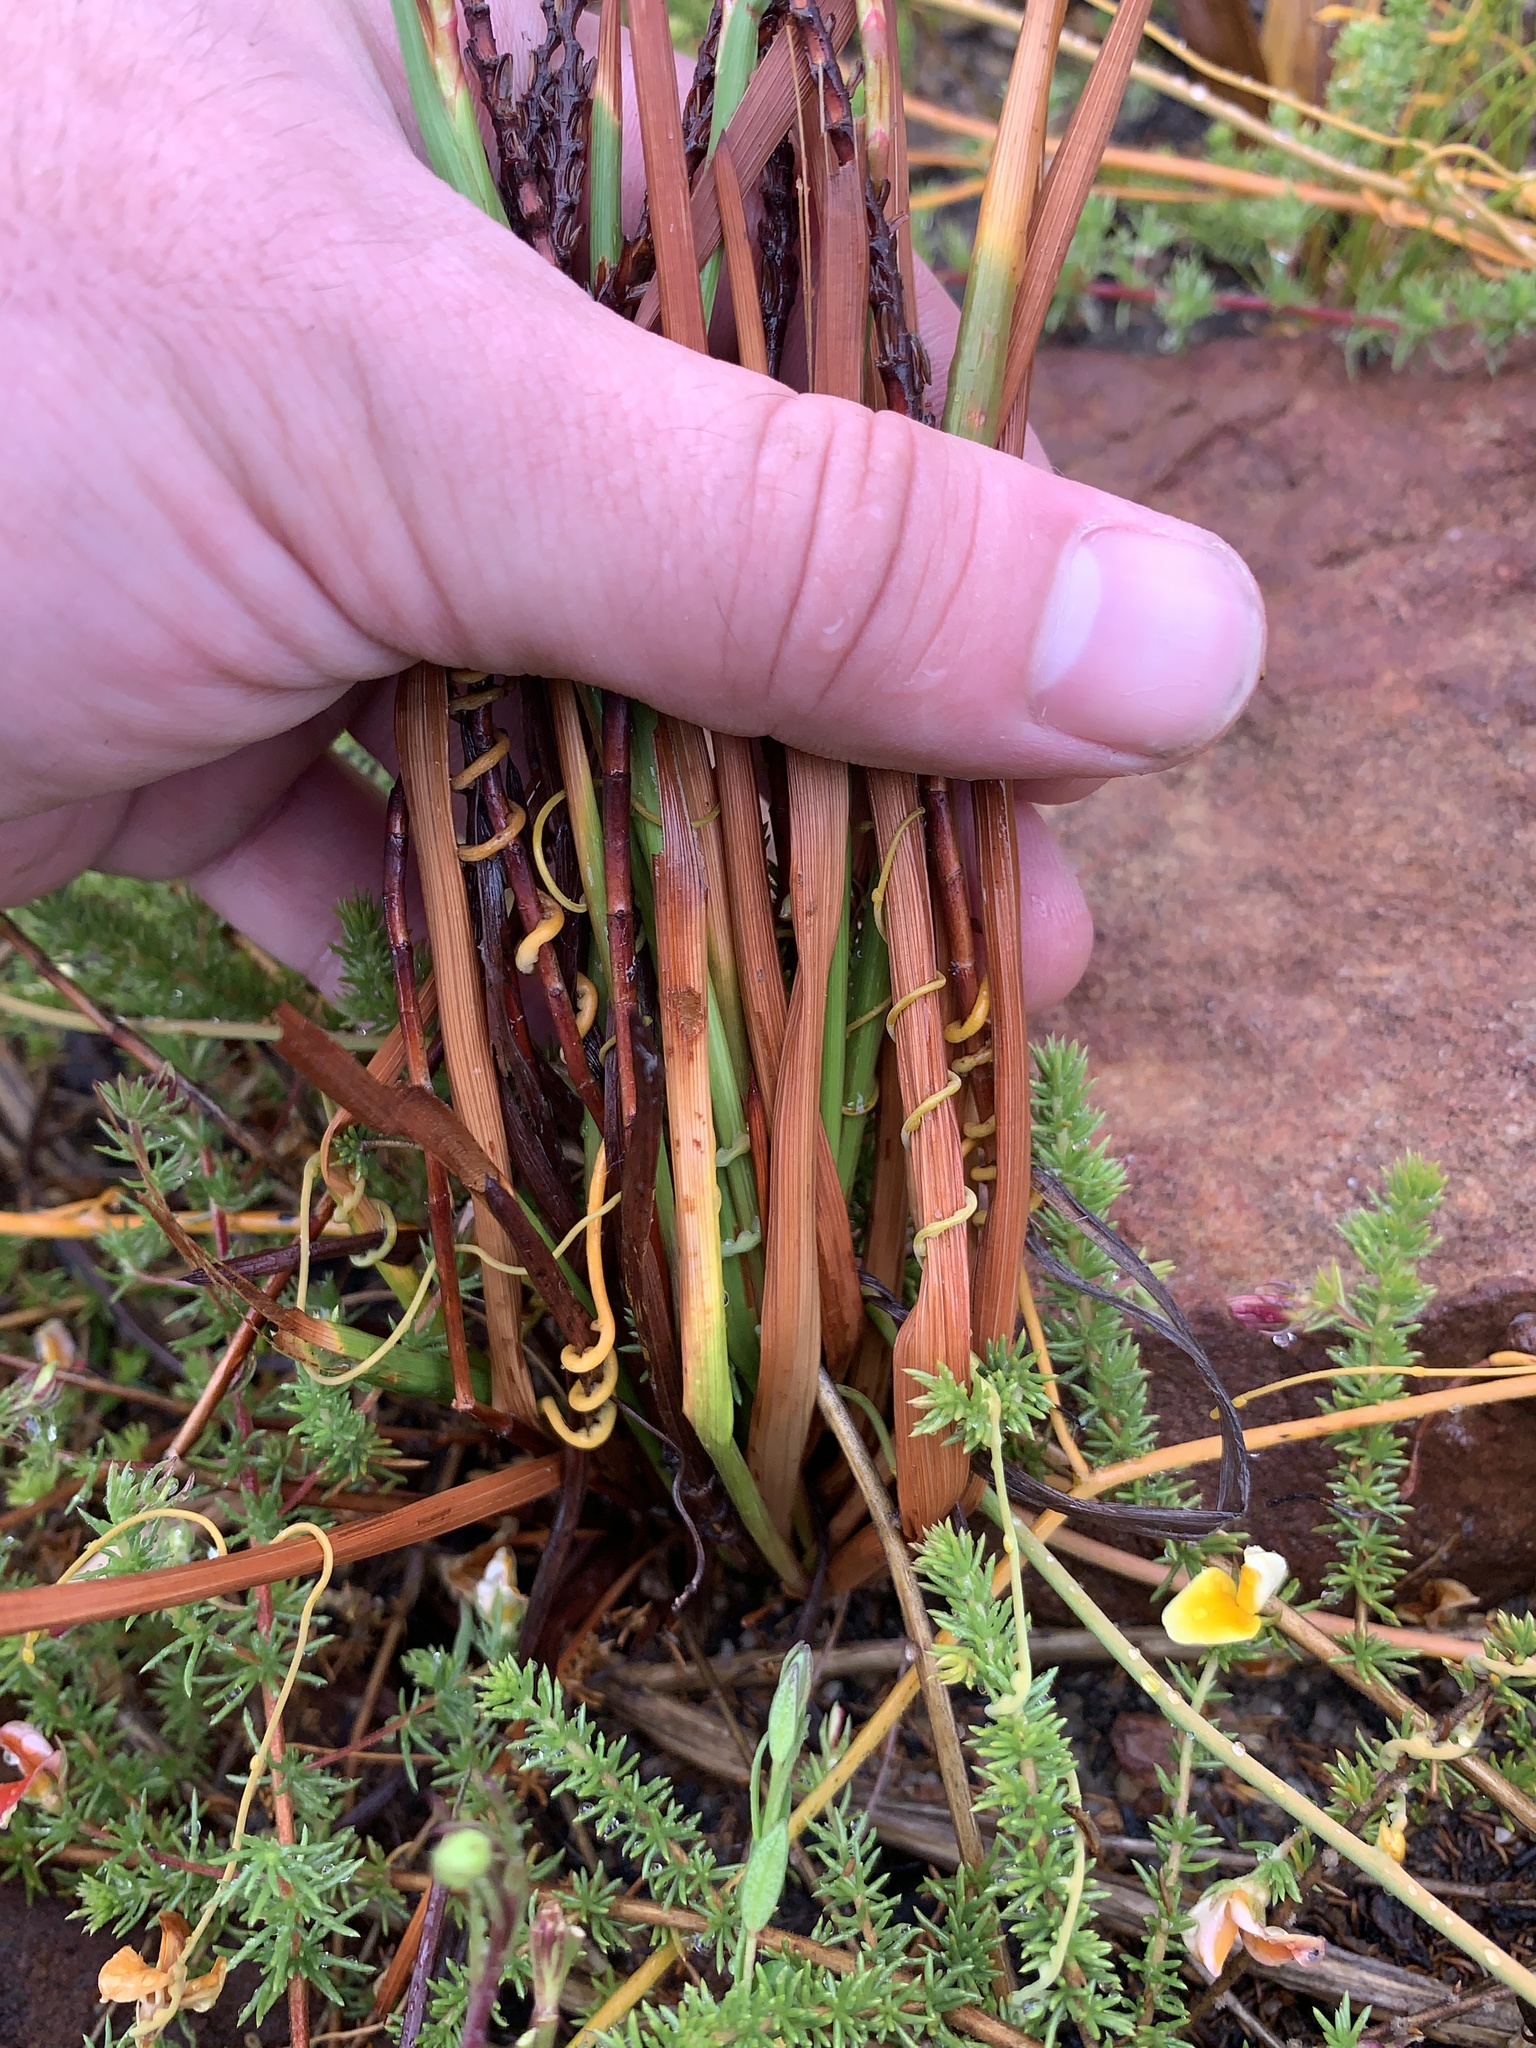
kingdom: Plantae
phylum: Tracheophyta
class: Liliopsida
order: Asparagales
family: Iridaceae
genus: Micranthus
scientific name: Micranthus tubulosus
